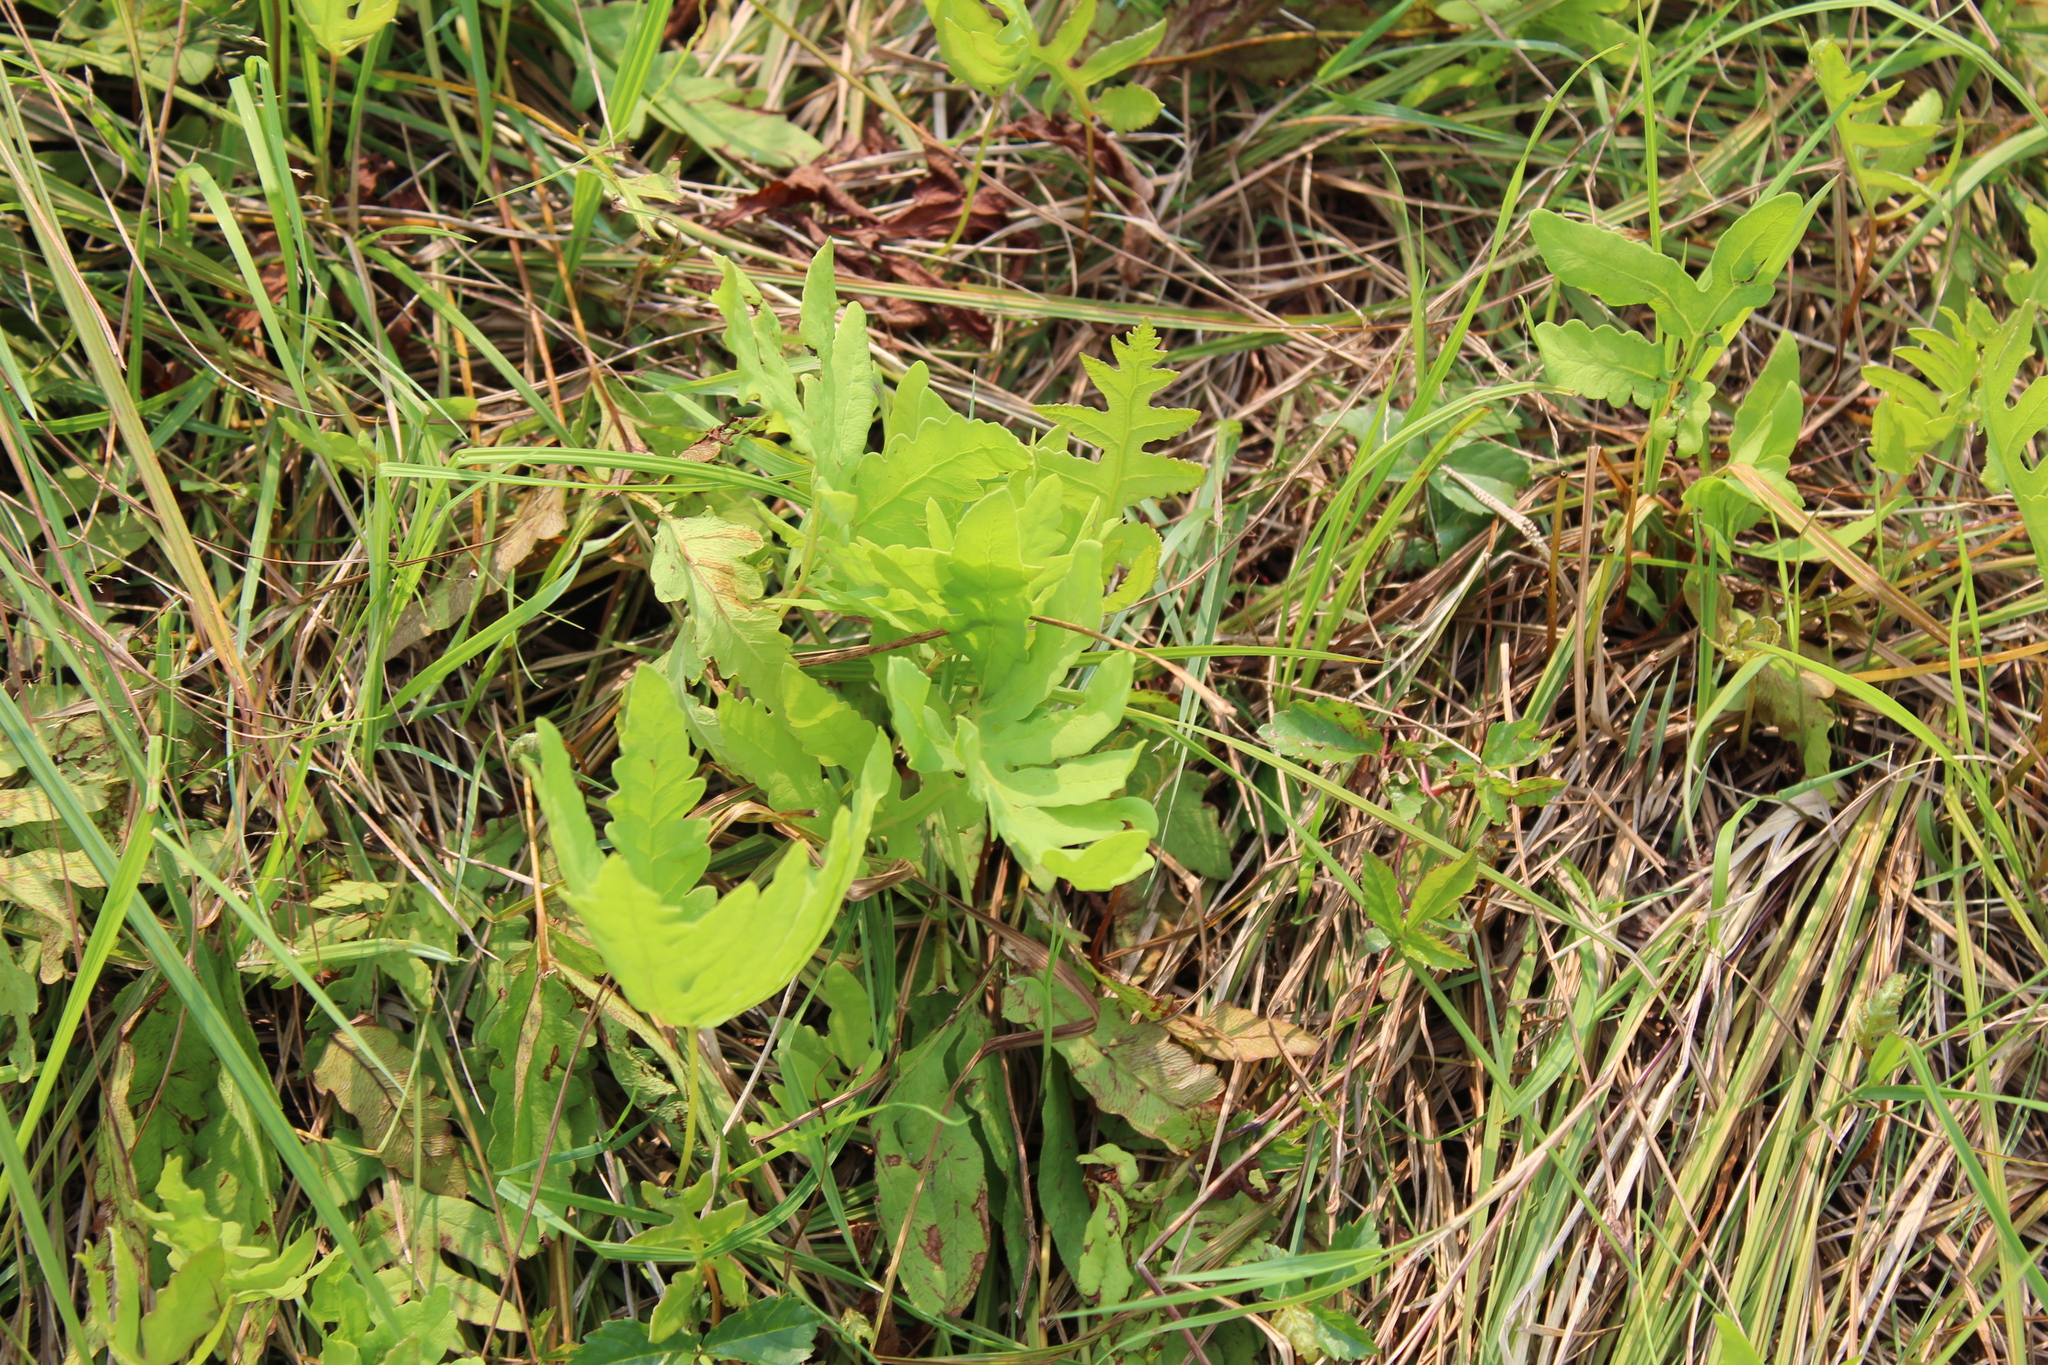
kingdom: Plantae
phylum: Tracheophyta
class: Polypodiopsida
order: Polypodiales
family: Onocleaceae
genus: Onoclea
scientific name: Onoclea sensibilis
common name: Sensitive fern
